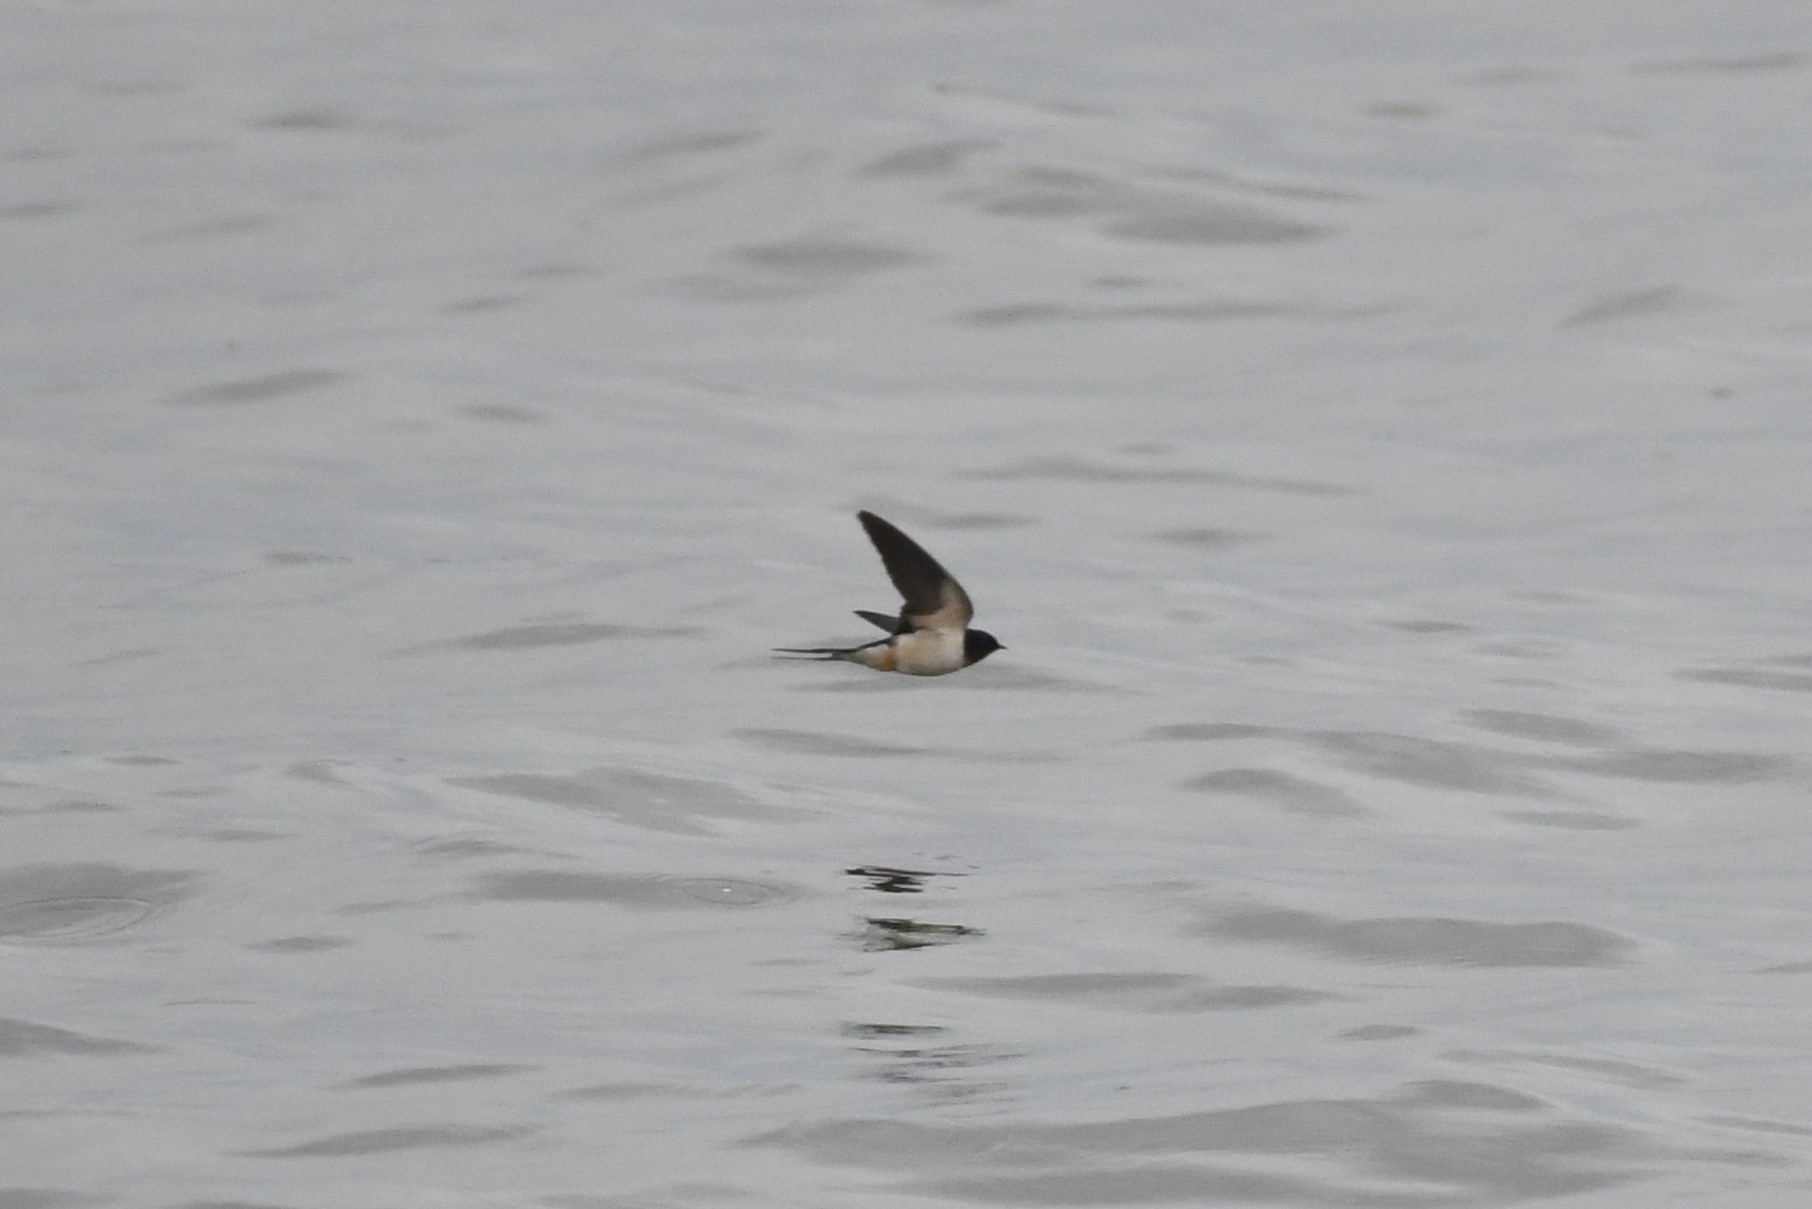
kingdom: Animalia
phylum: Chordata
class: Aves
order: Passeriformes
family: Hirundinidae
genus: Hirundo
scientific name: Hirundo rustica
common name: Barn swallow
